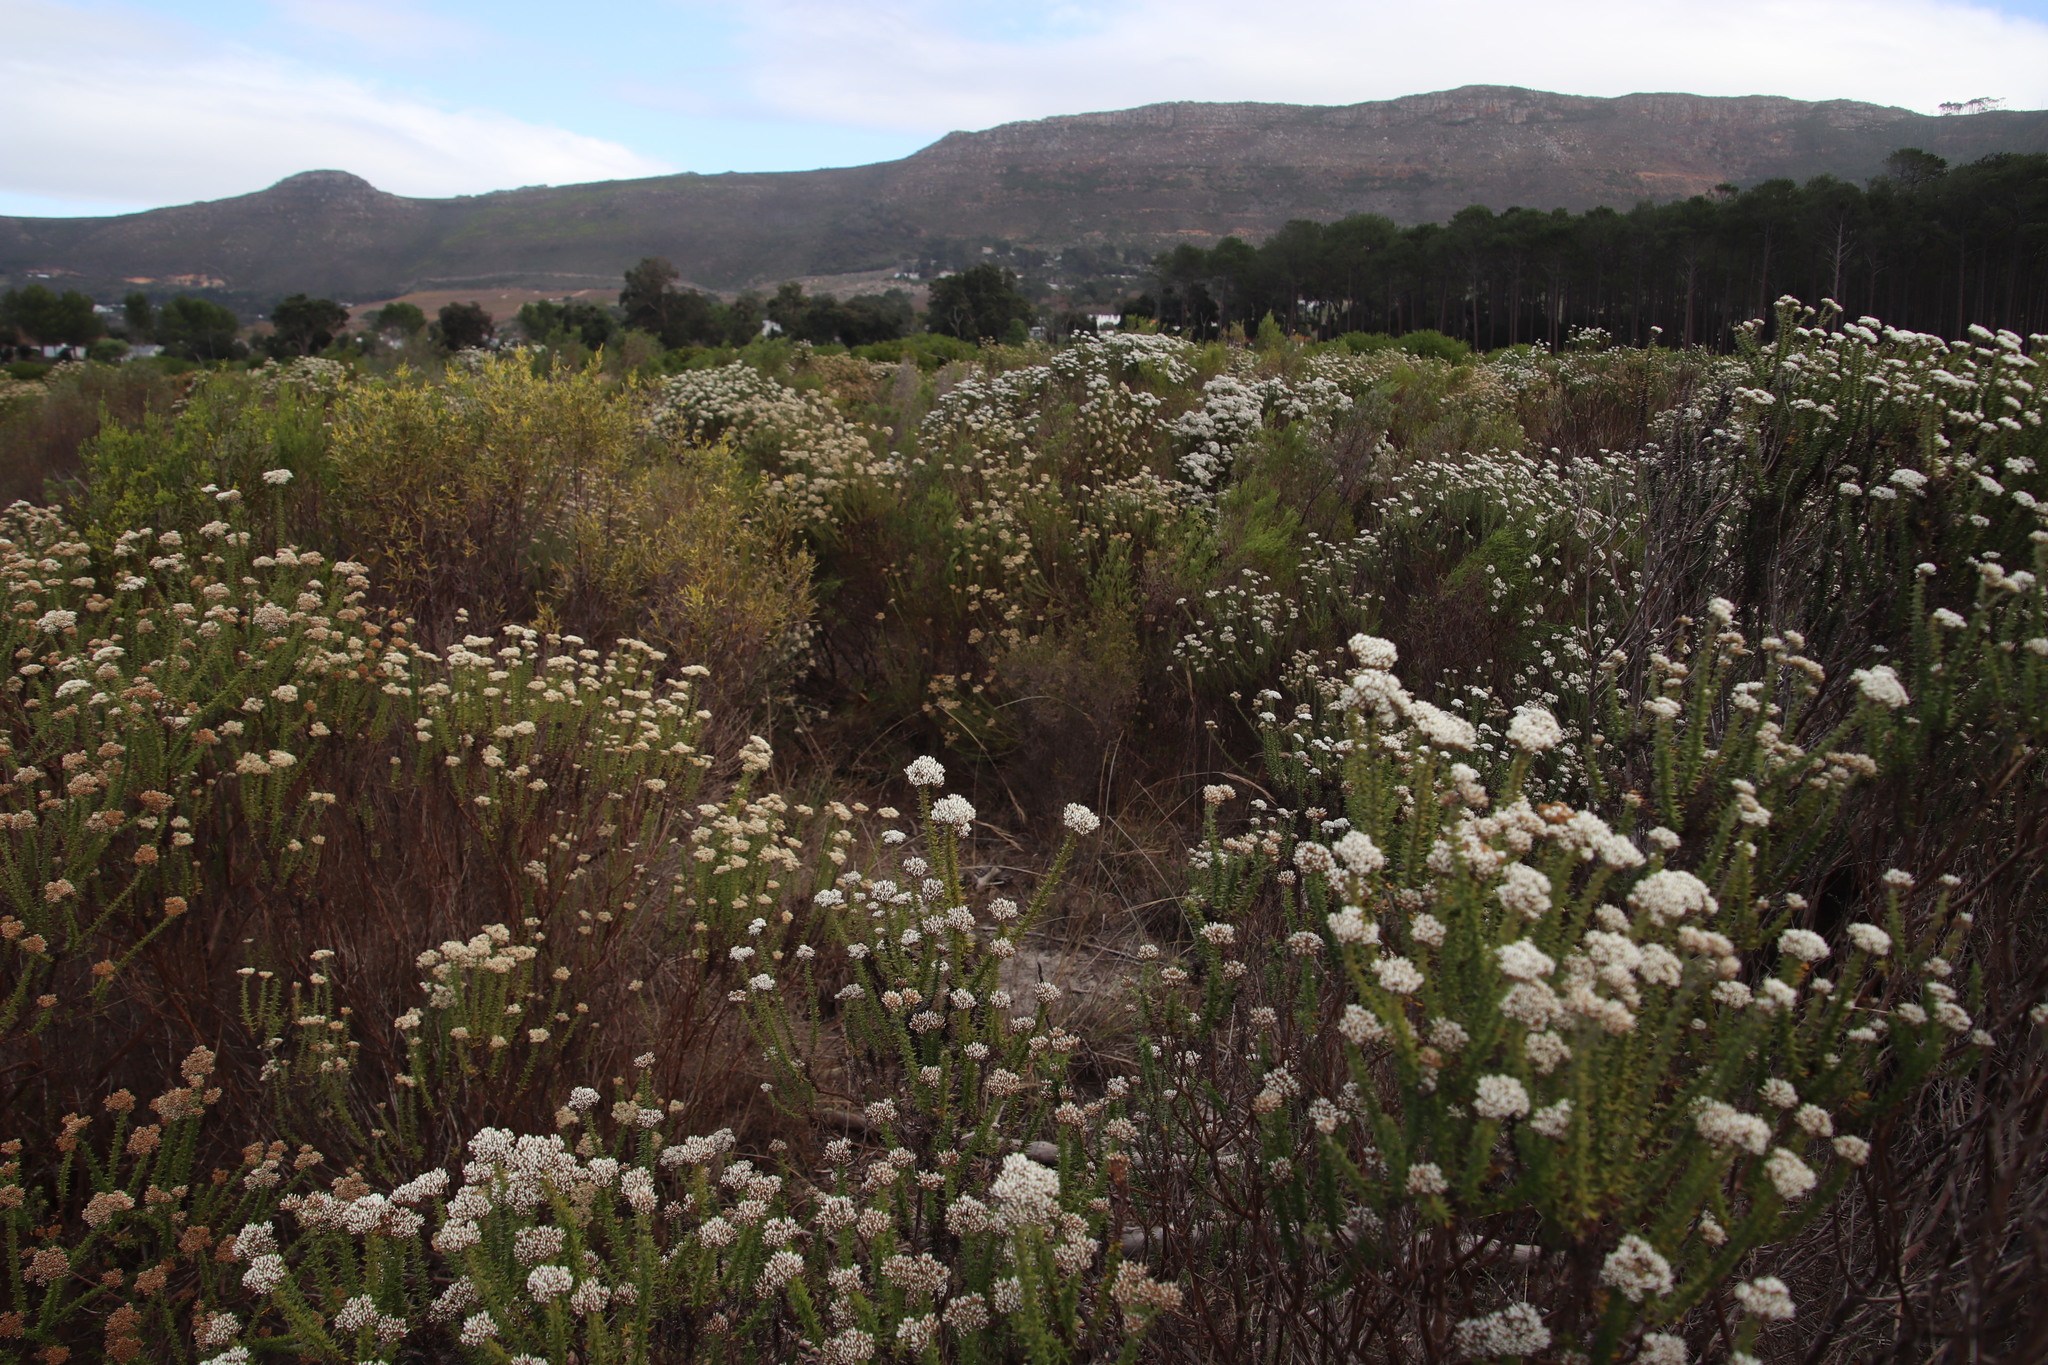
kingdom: Plantae
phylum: Tracheophyta
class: Magnoliopsida
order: Malvales
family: Thymelaeaceae
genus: Passerina
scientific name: Passerina corymbosa
